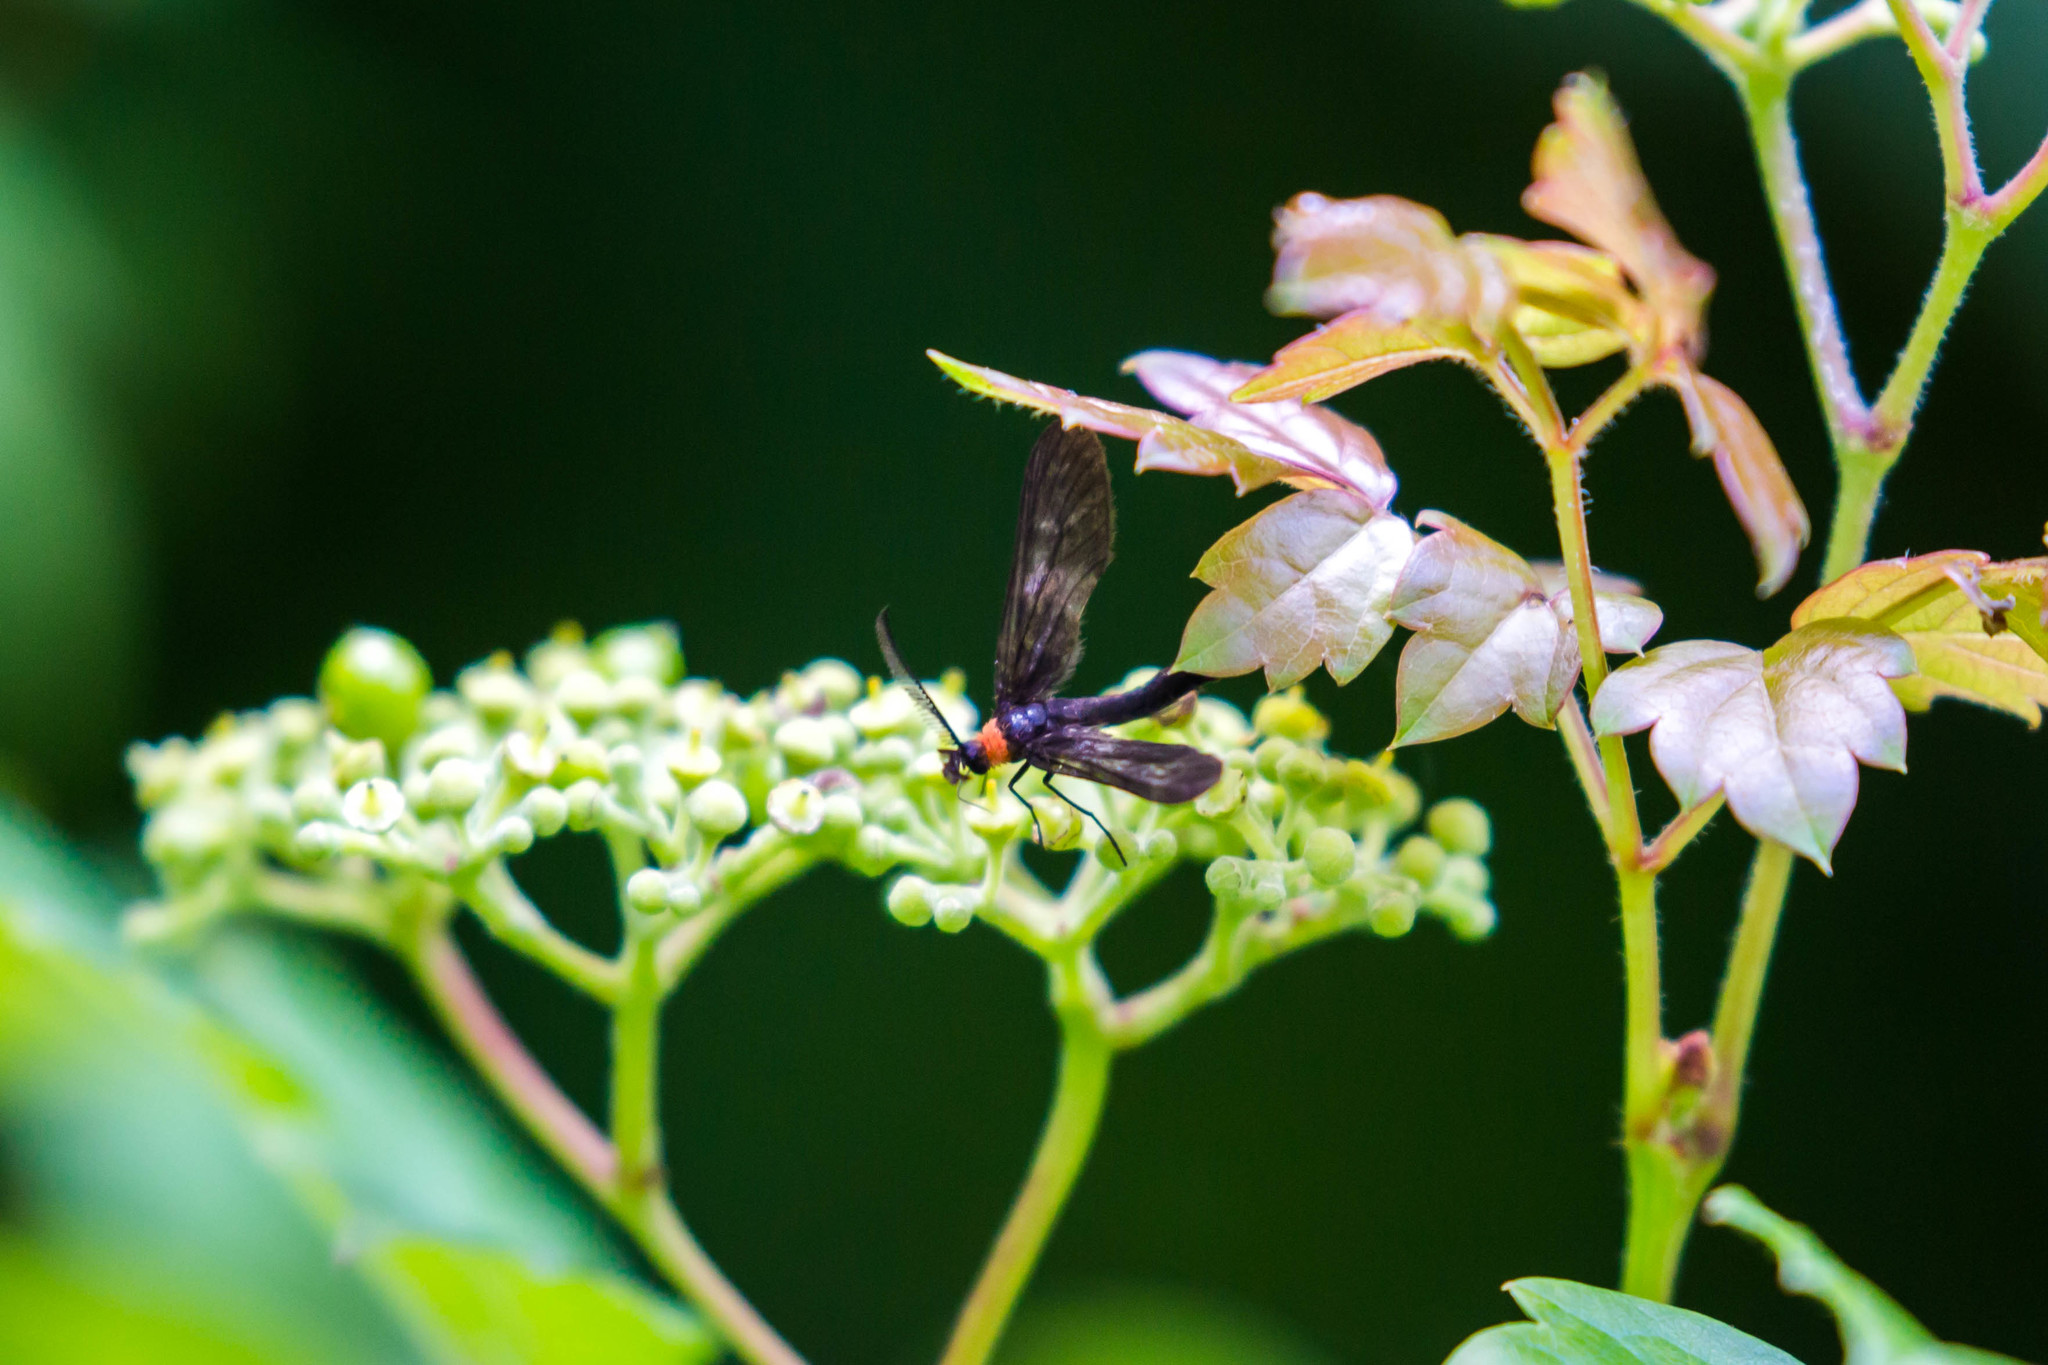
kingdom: Animalia
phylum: Arthropoda
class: Insecta
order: Lepidoptera
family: Zygaenidae
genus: Harrisina
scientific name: Harrisina americana
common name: Grapeleaf skeletonizer moth
